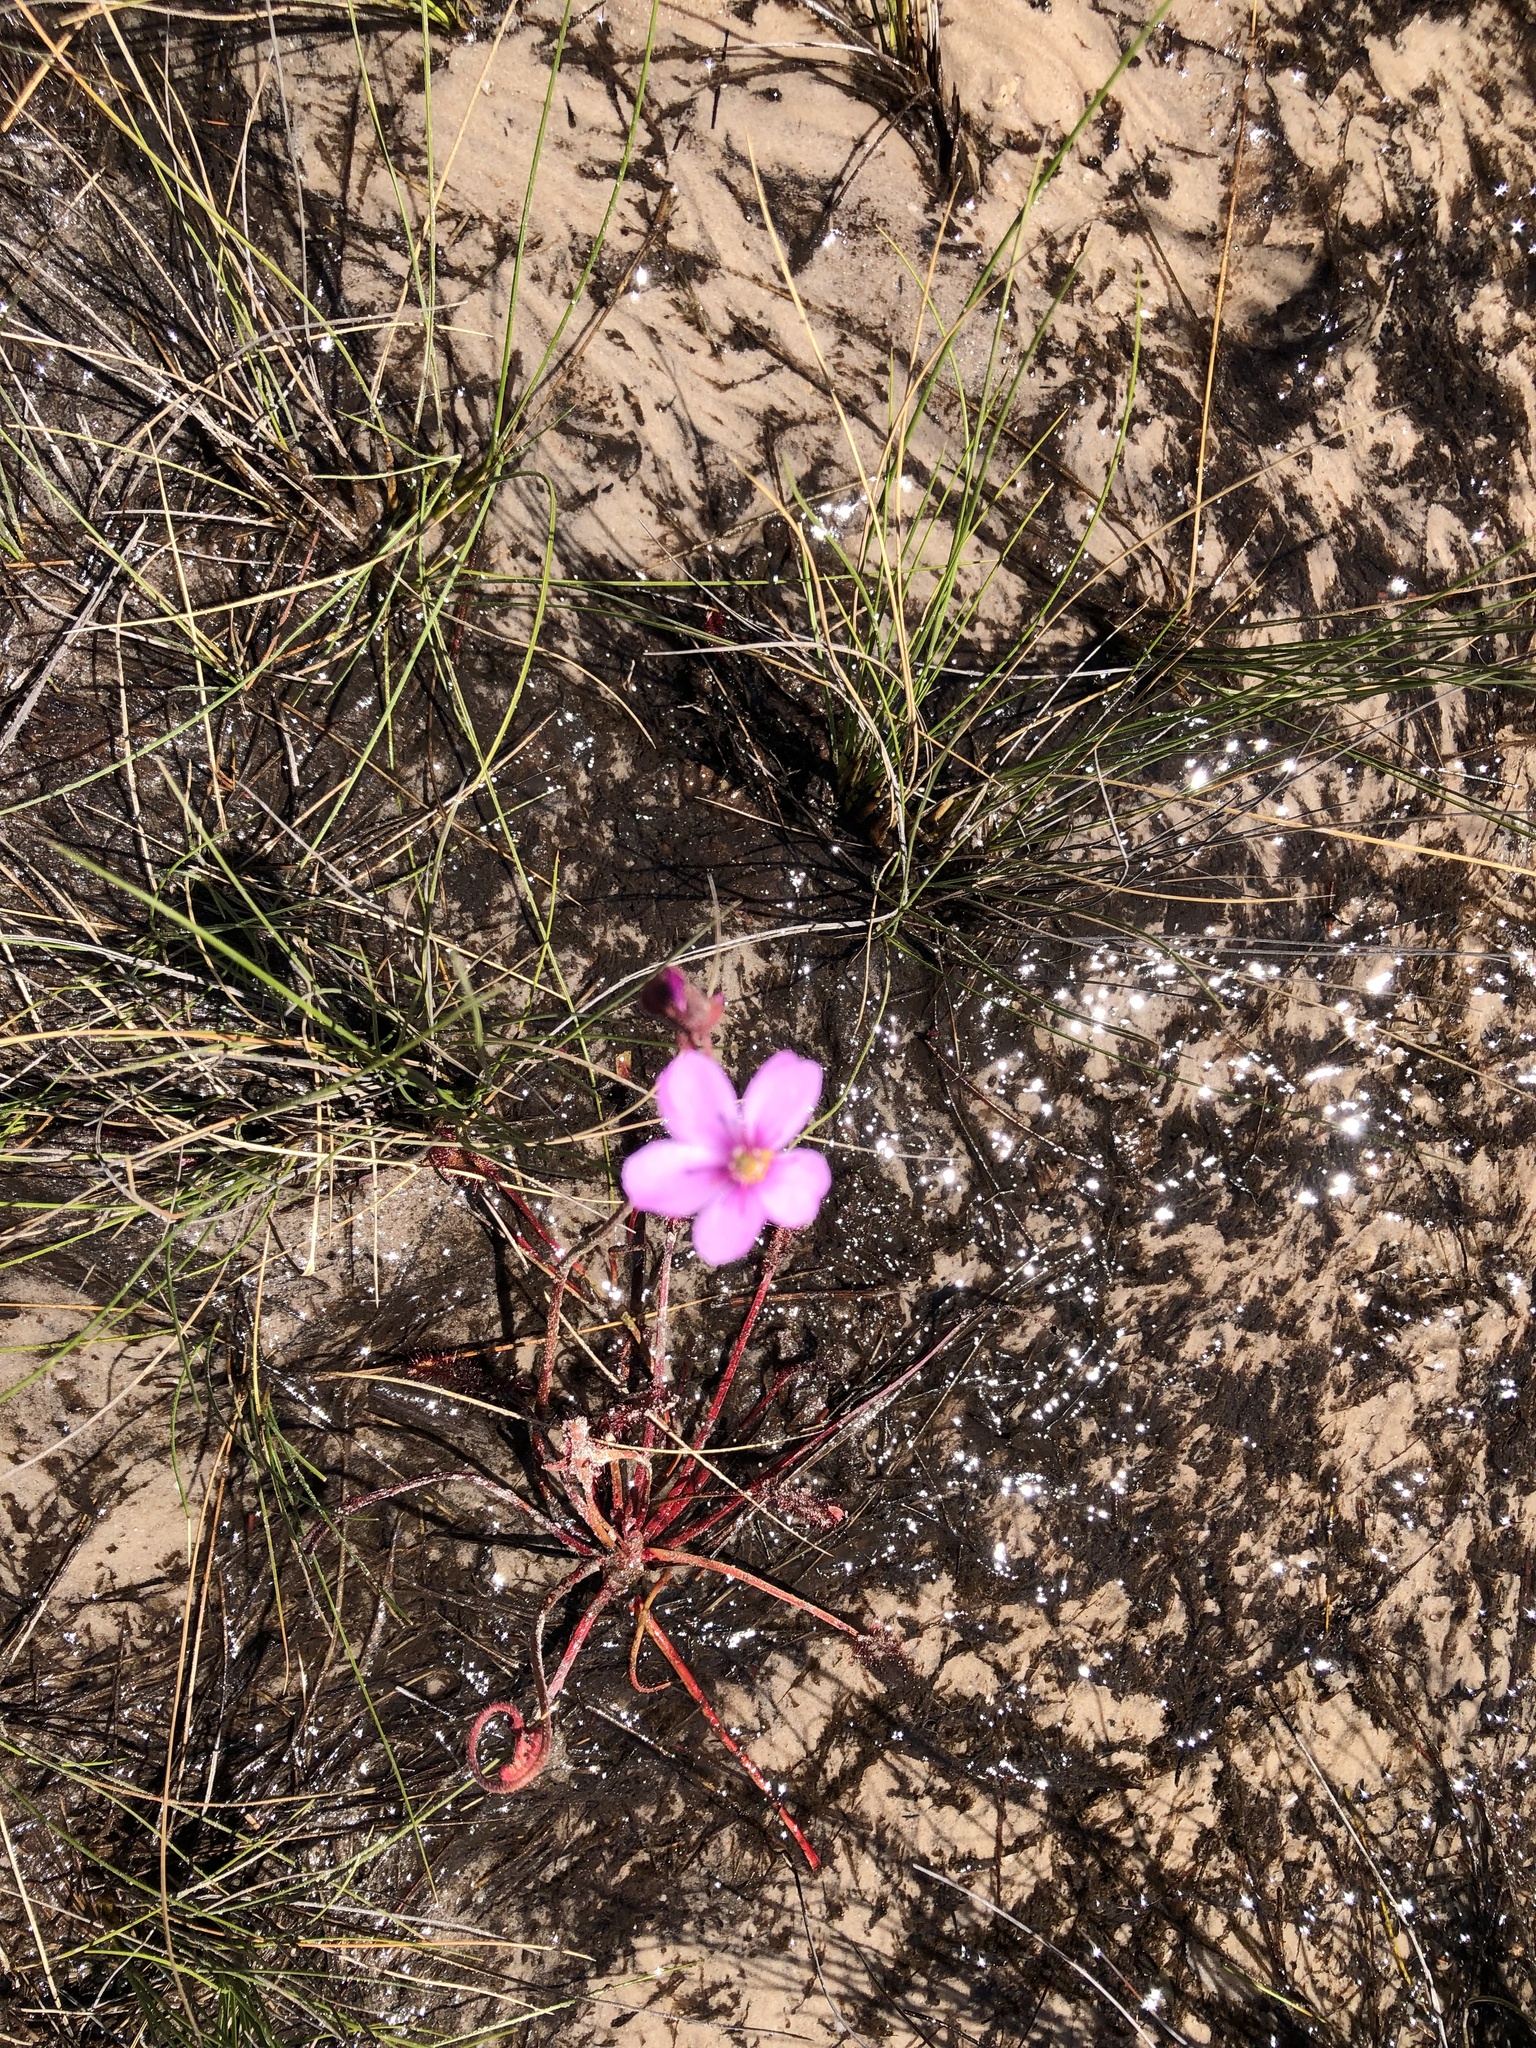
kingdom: Plantae
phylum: Tracheophyta
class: Magnoliopsida
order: Caryophyllales
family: Droseraceae
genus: Drosera
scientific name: Drosera capensis
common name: Cape sundew
